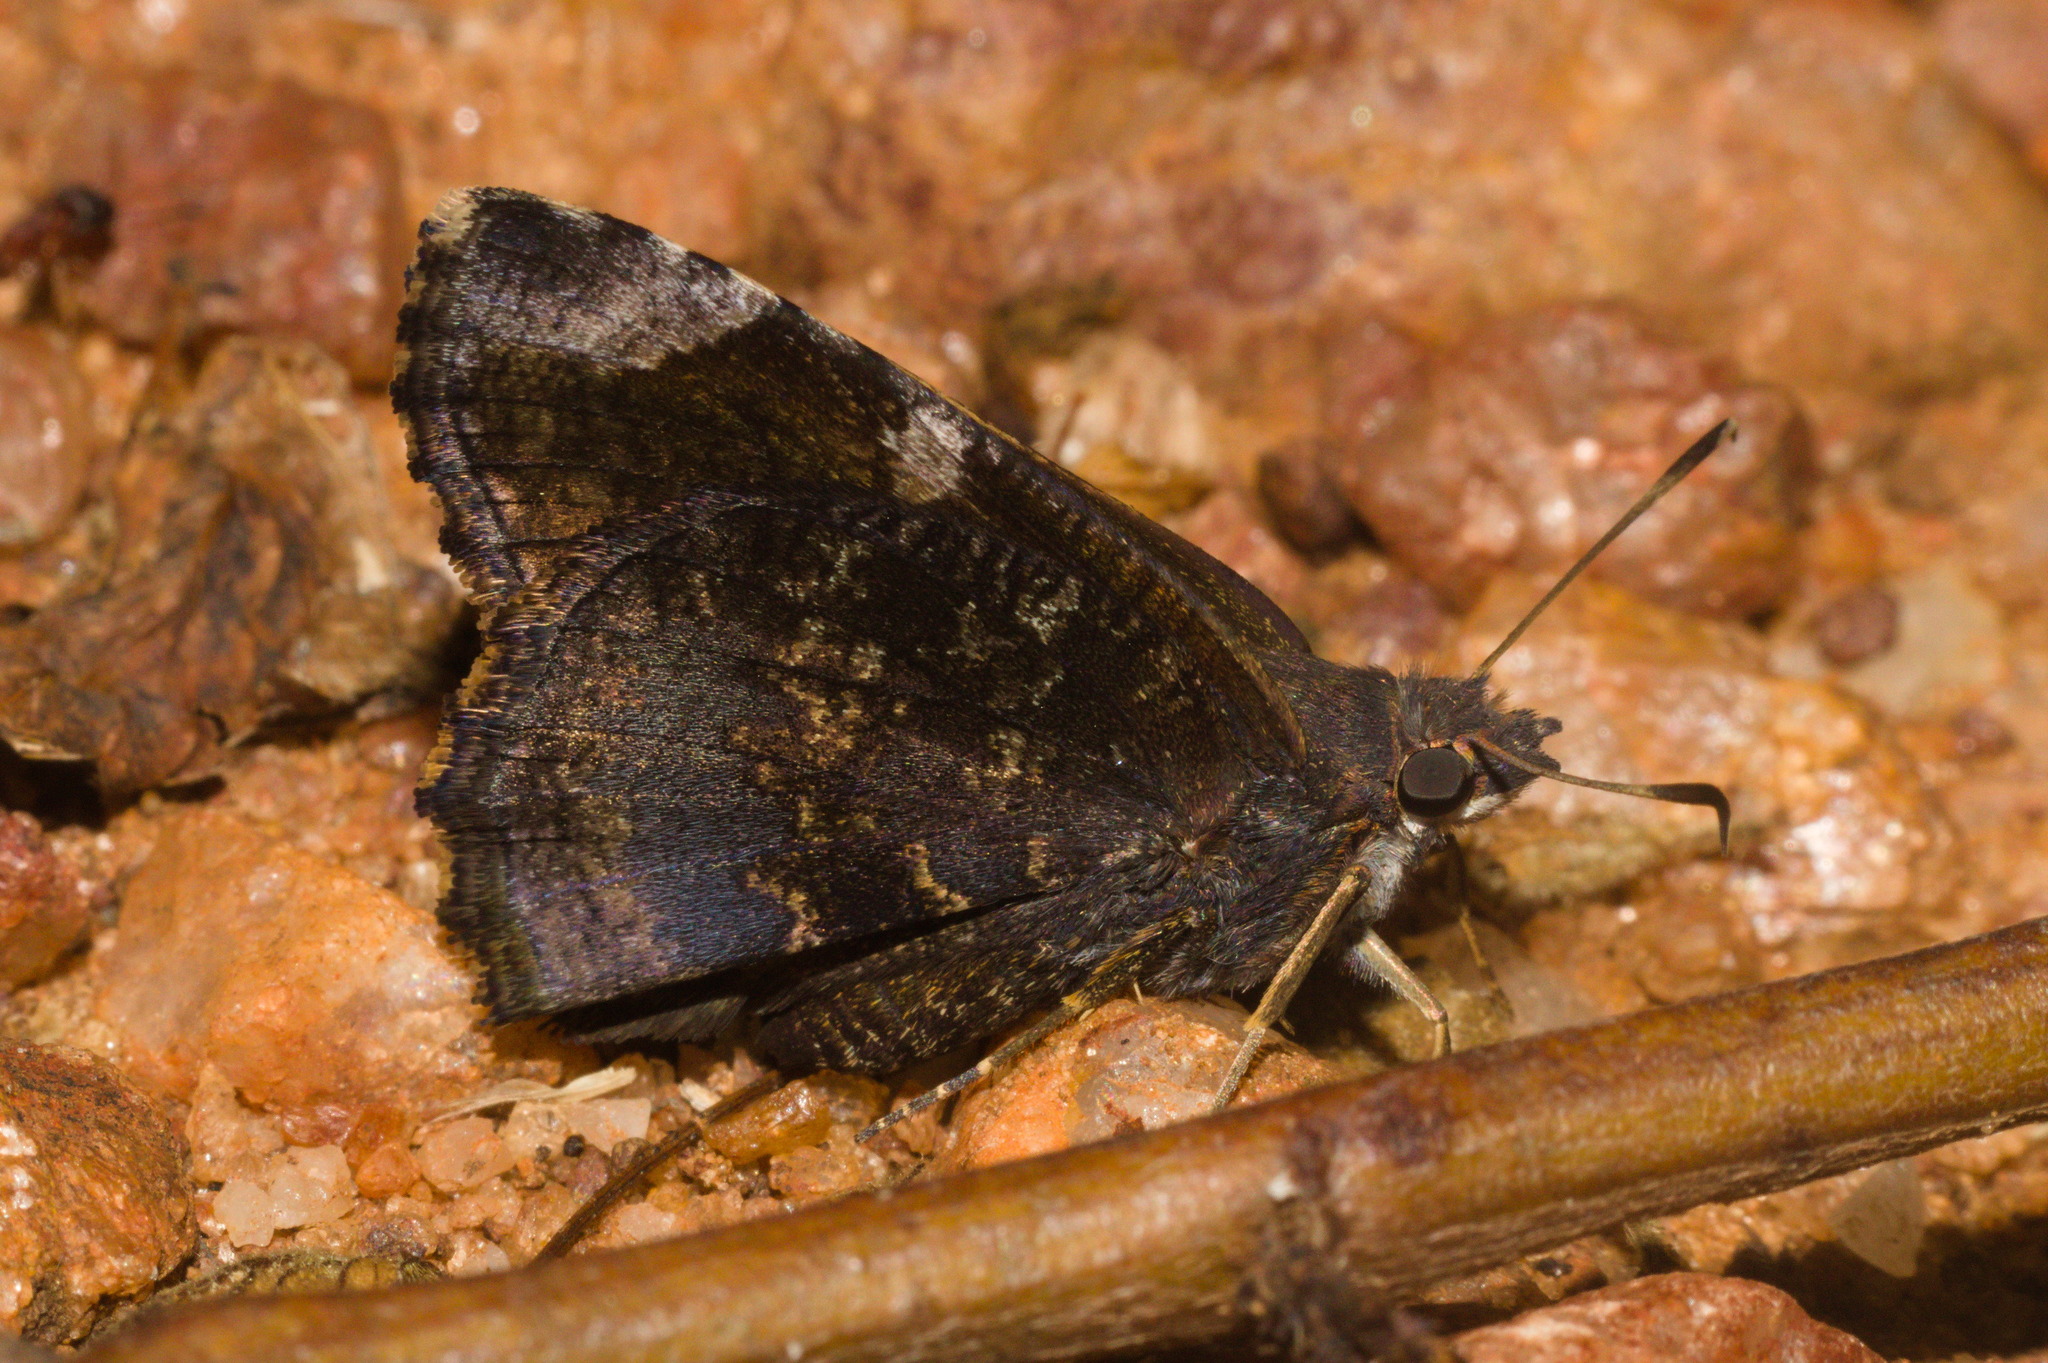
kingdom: Animalia
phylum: Arthropoda
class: Insecta
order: Lepidoptera
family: Hesperiidae
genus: Caicella
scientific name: Caicella calchas
